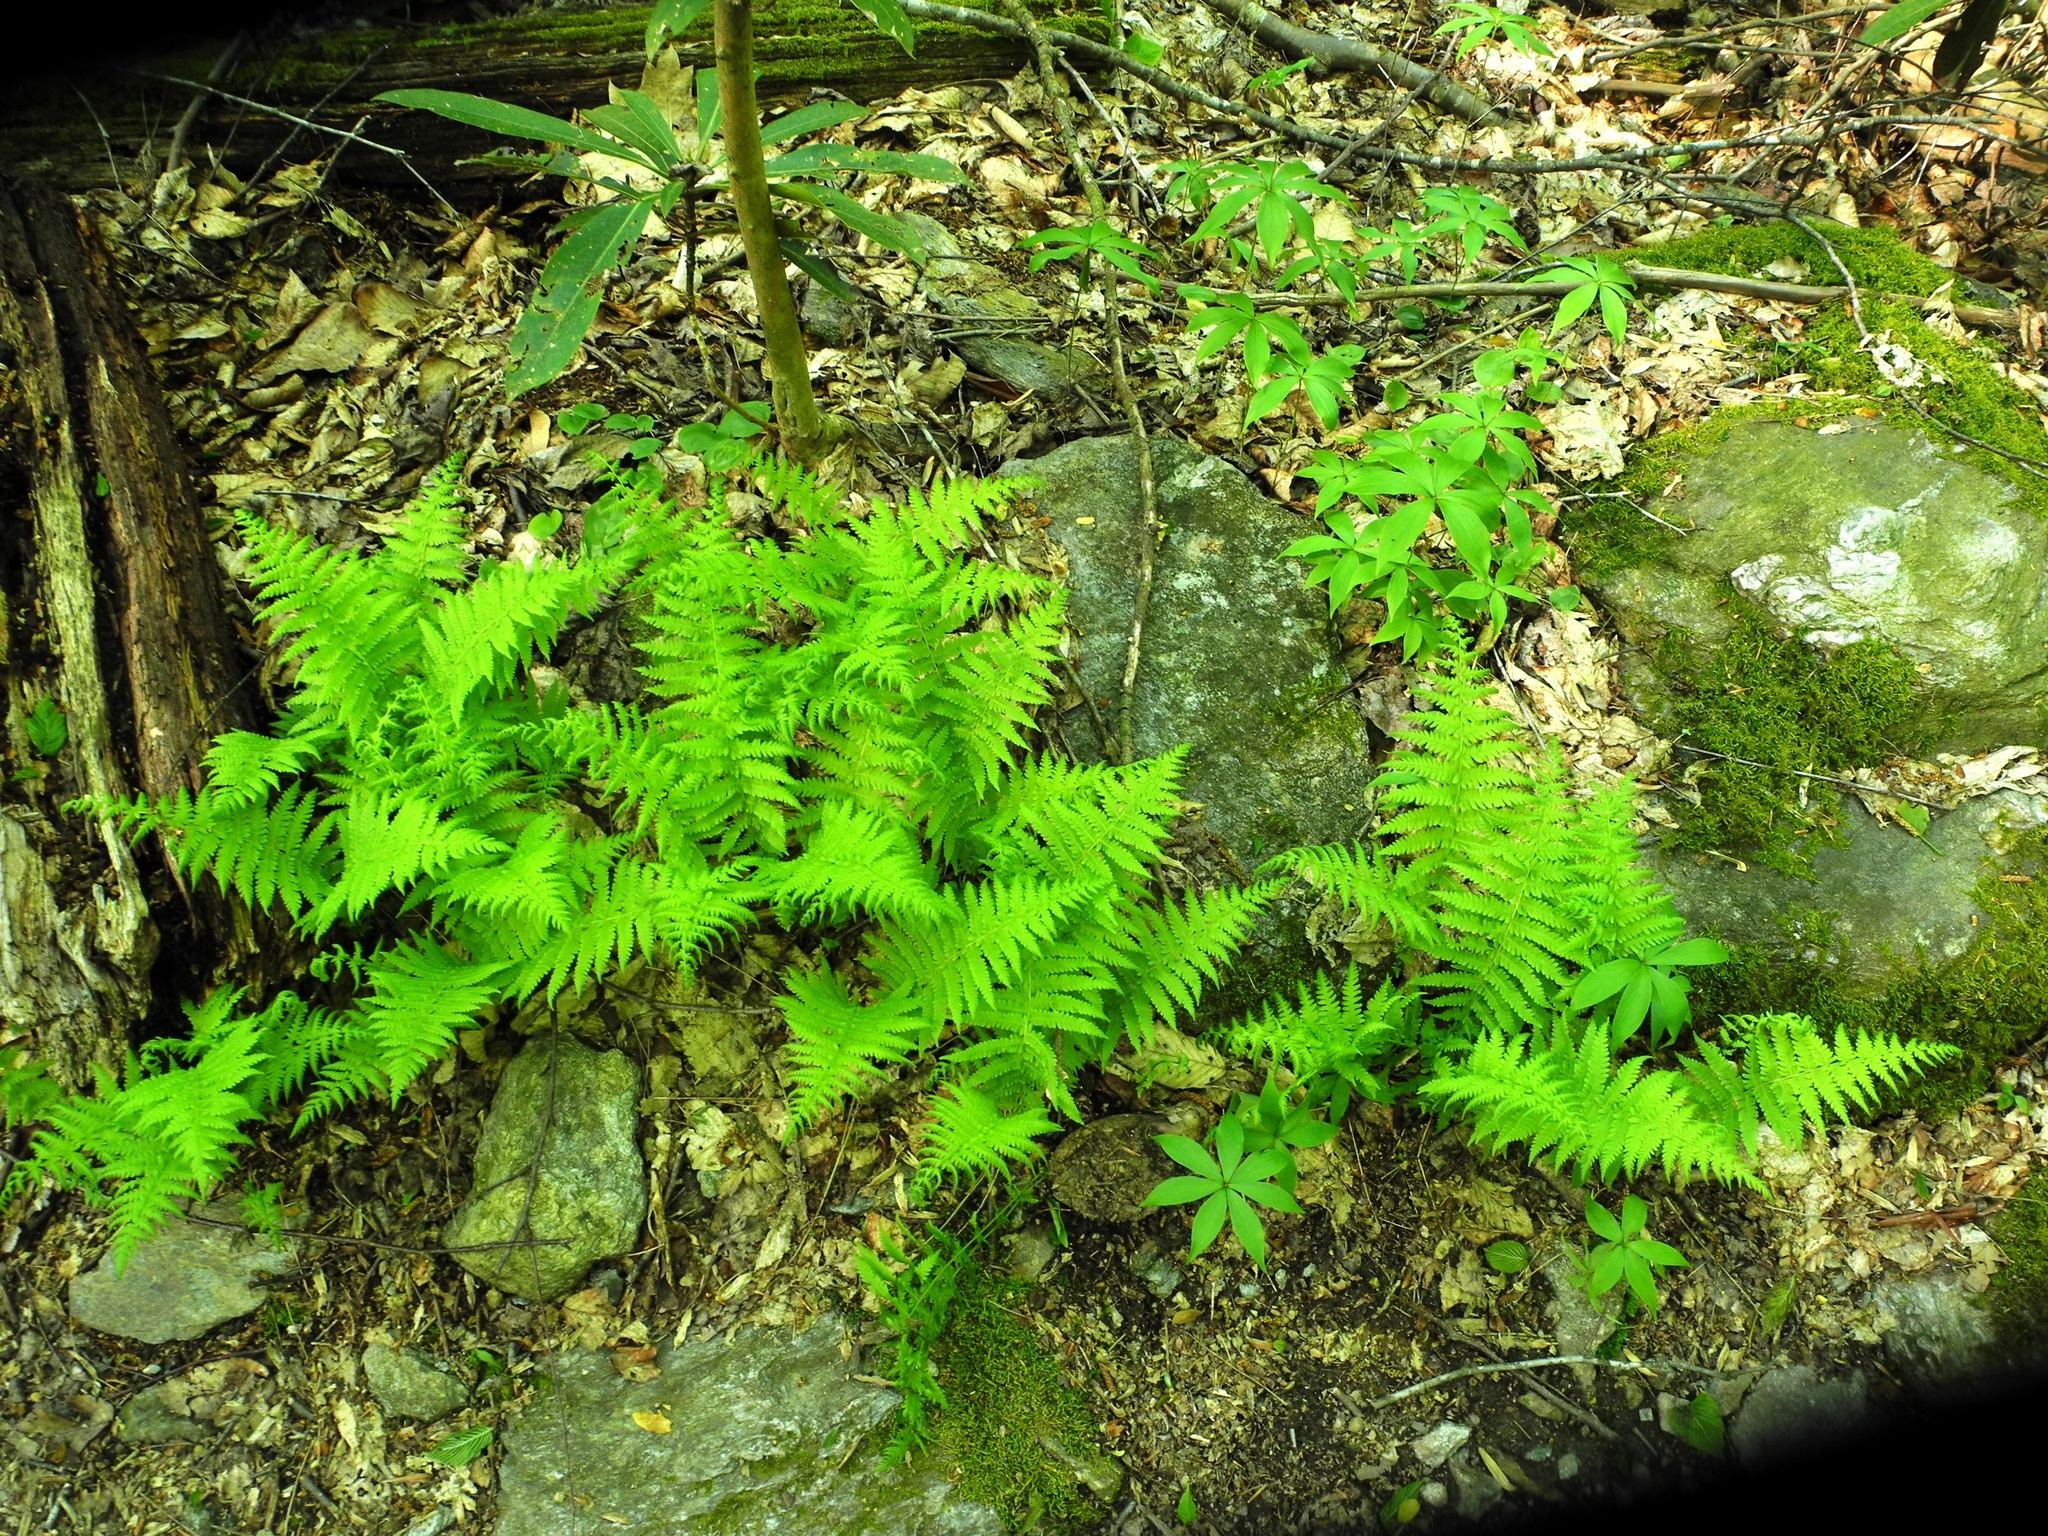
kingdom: Plantae
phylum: Tracheophyta
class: Polypodiopsida
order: Polypodiales
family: Thelypteridaceae
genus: Amauropelta
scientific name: Amauropelta noveboracensis
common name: New york fern
